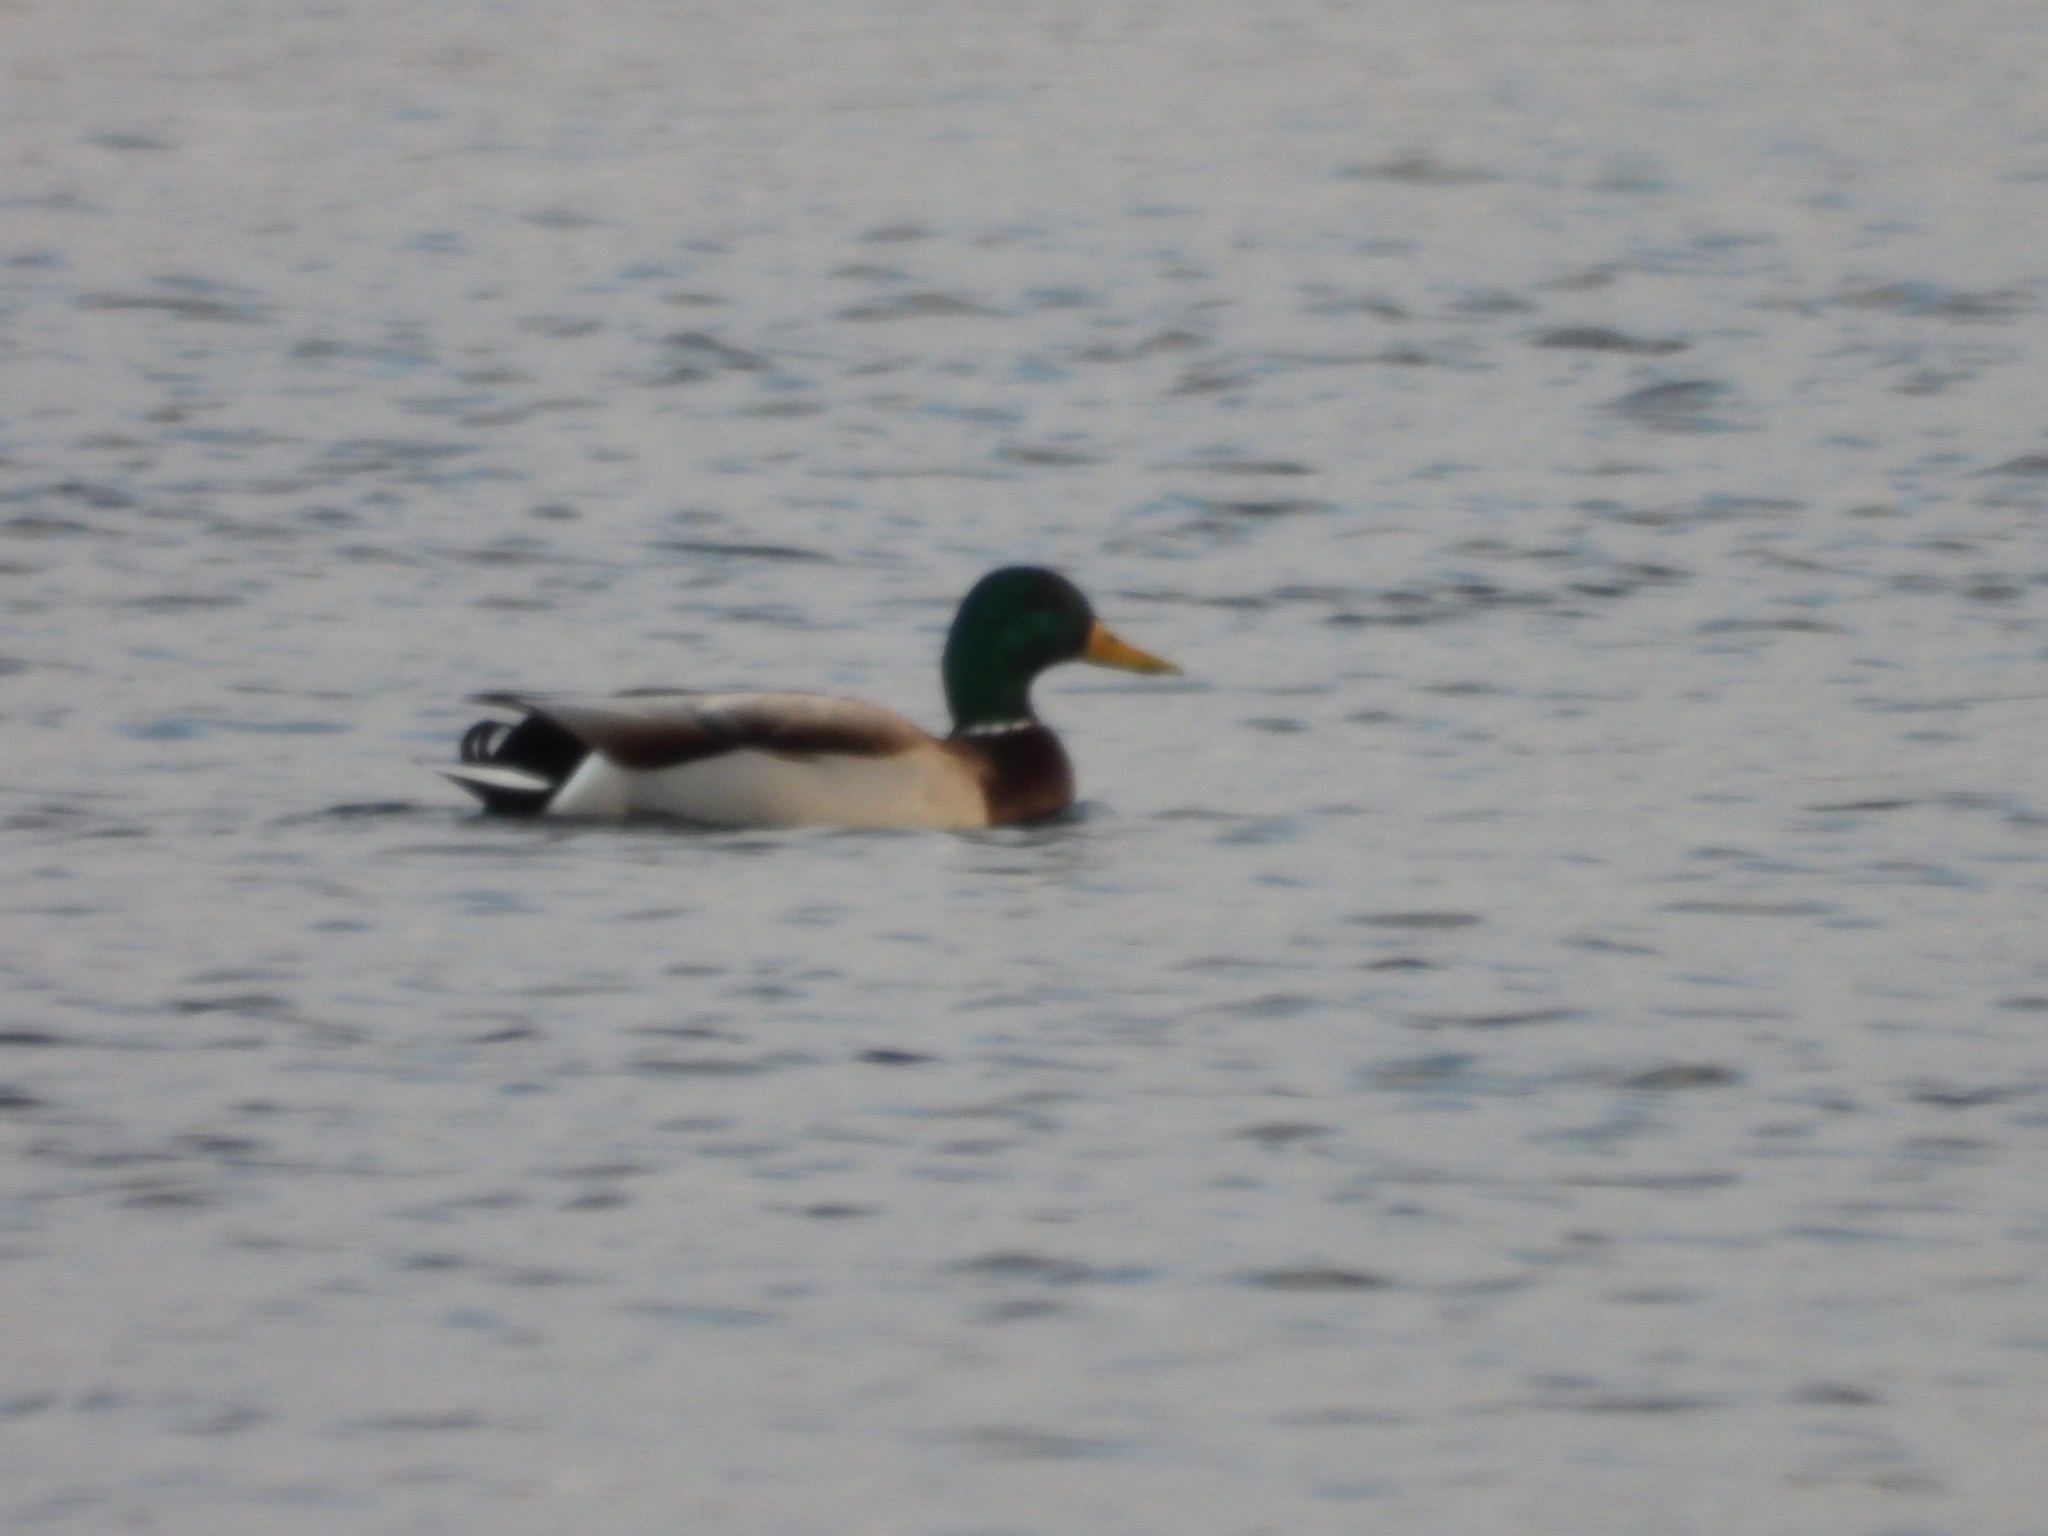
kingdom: Animalia
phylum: Chordata
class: Aves
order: Anseriformes
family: Anatidae
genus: Anas
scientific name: Anas platyrhynchos
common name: Mallard
